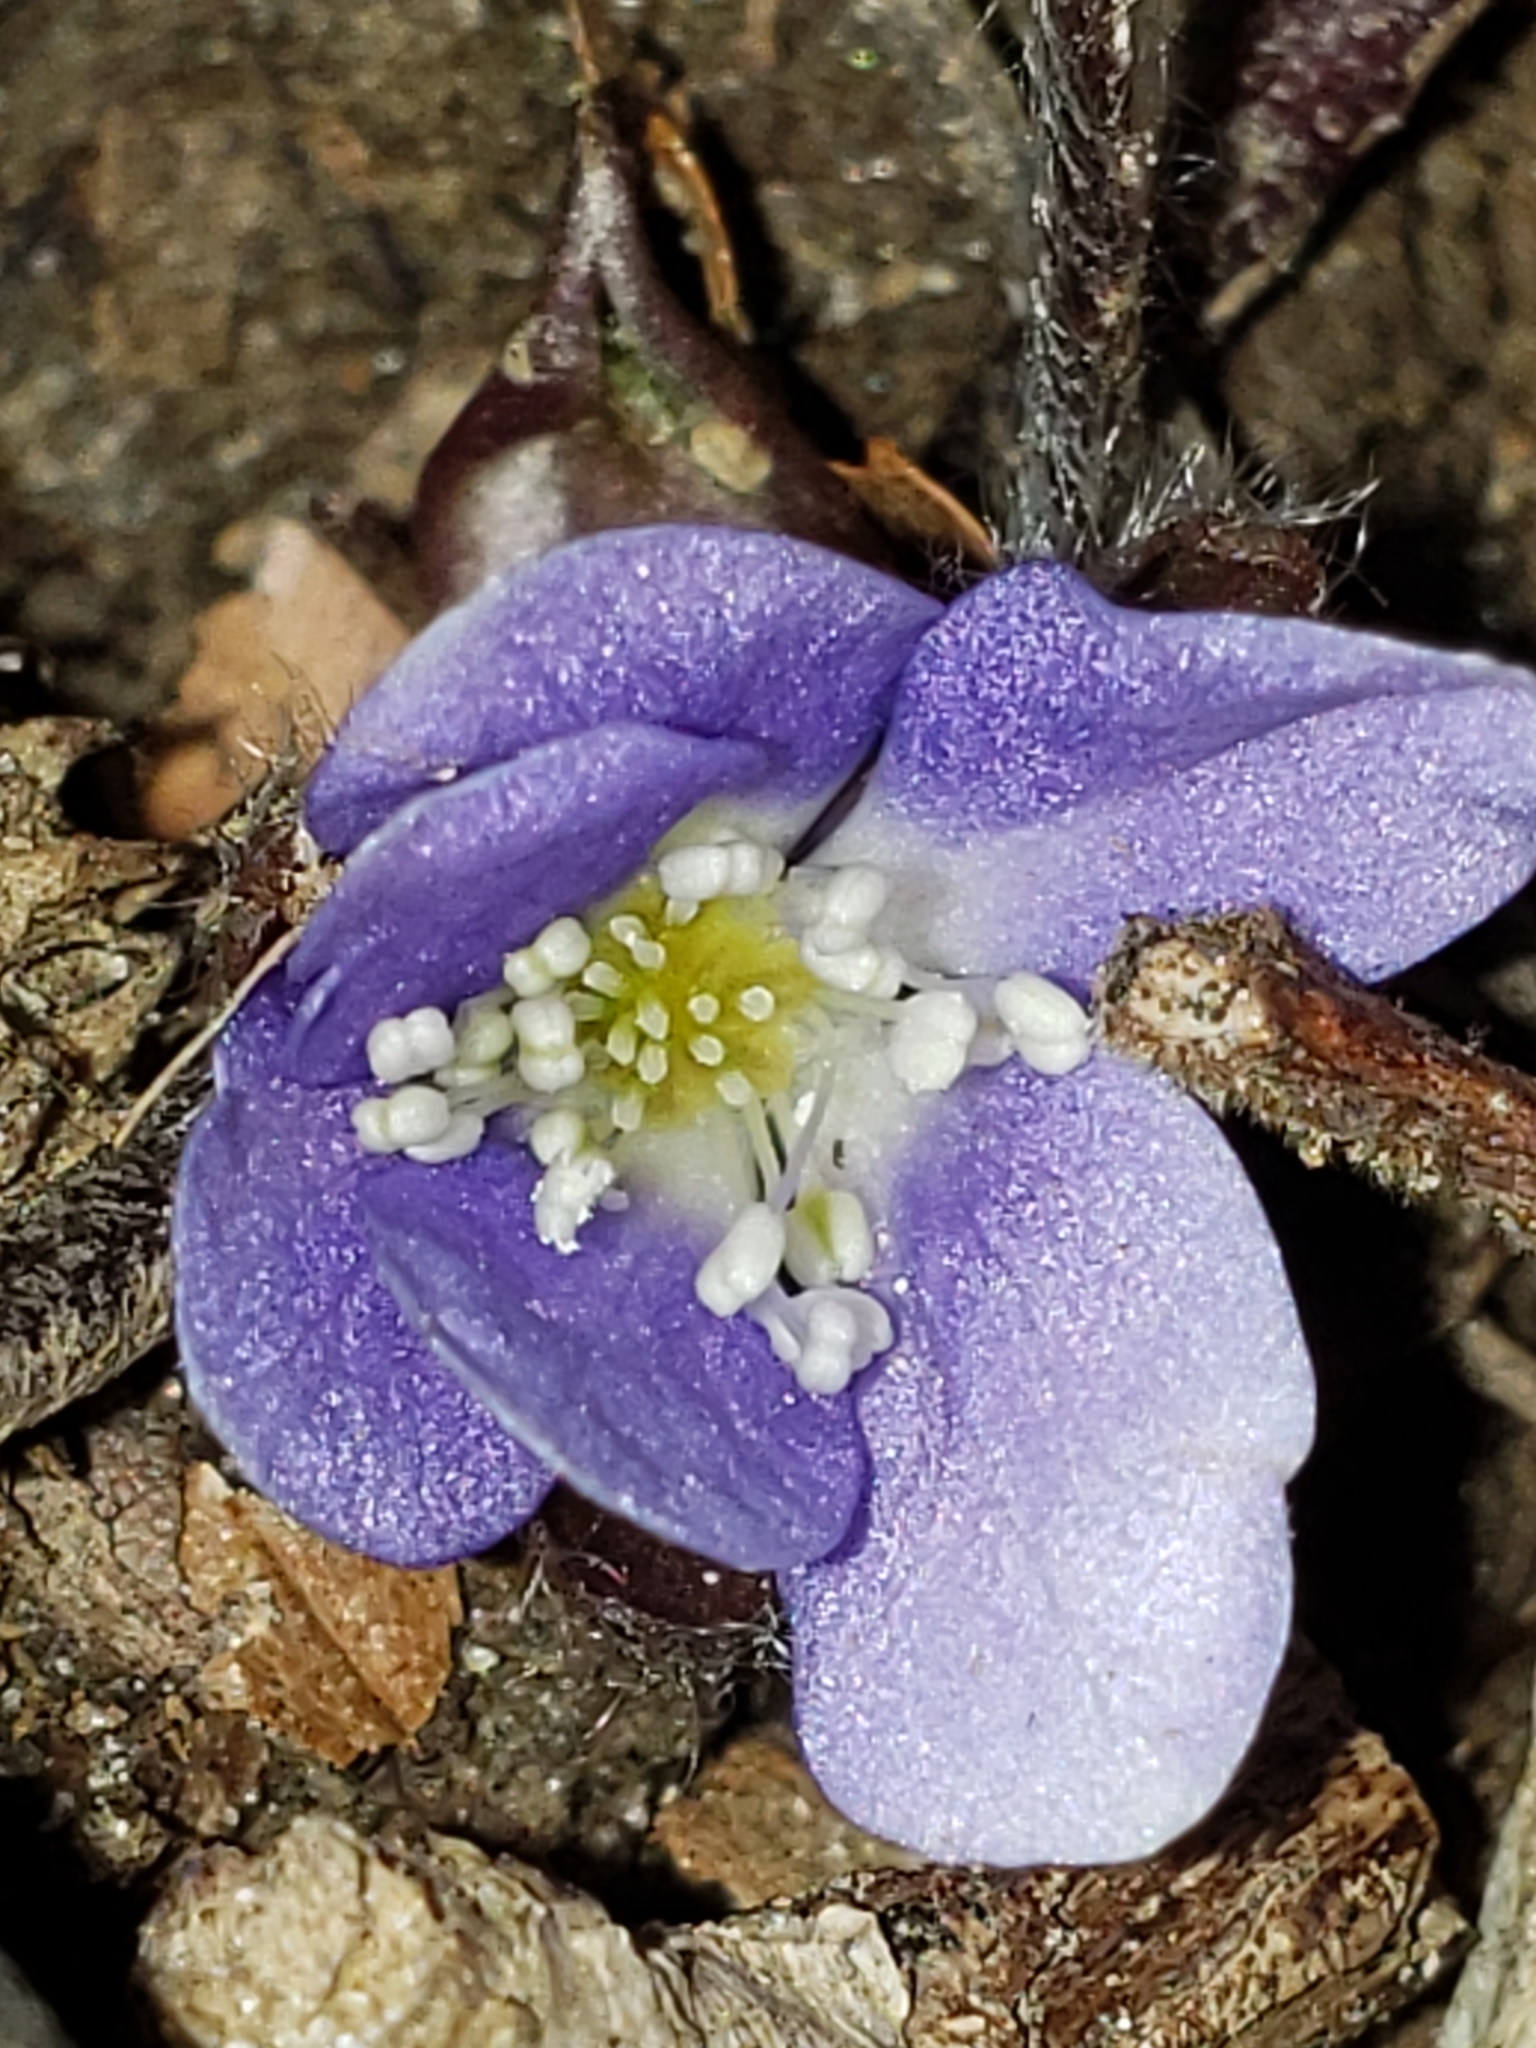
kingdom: Plantae
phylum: Tracheophyta
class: Magnoliopsida
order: Ranunculales
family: Ranunculaceae
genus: Hepatica
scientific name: Hepatica americana
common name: American hepatica
